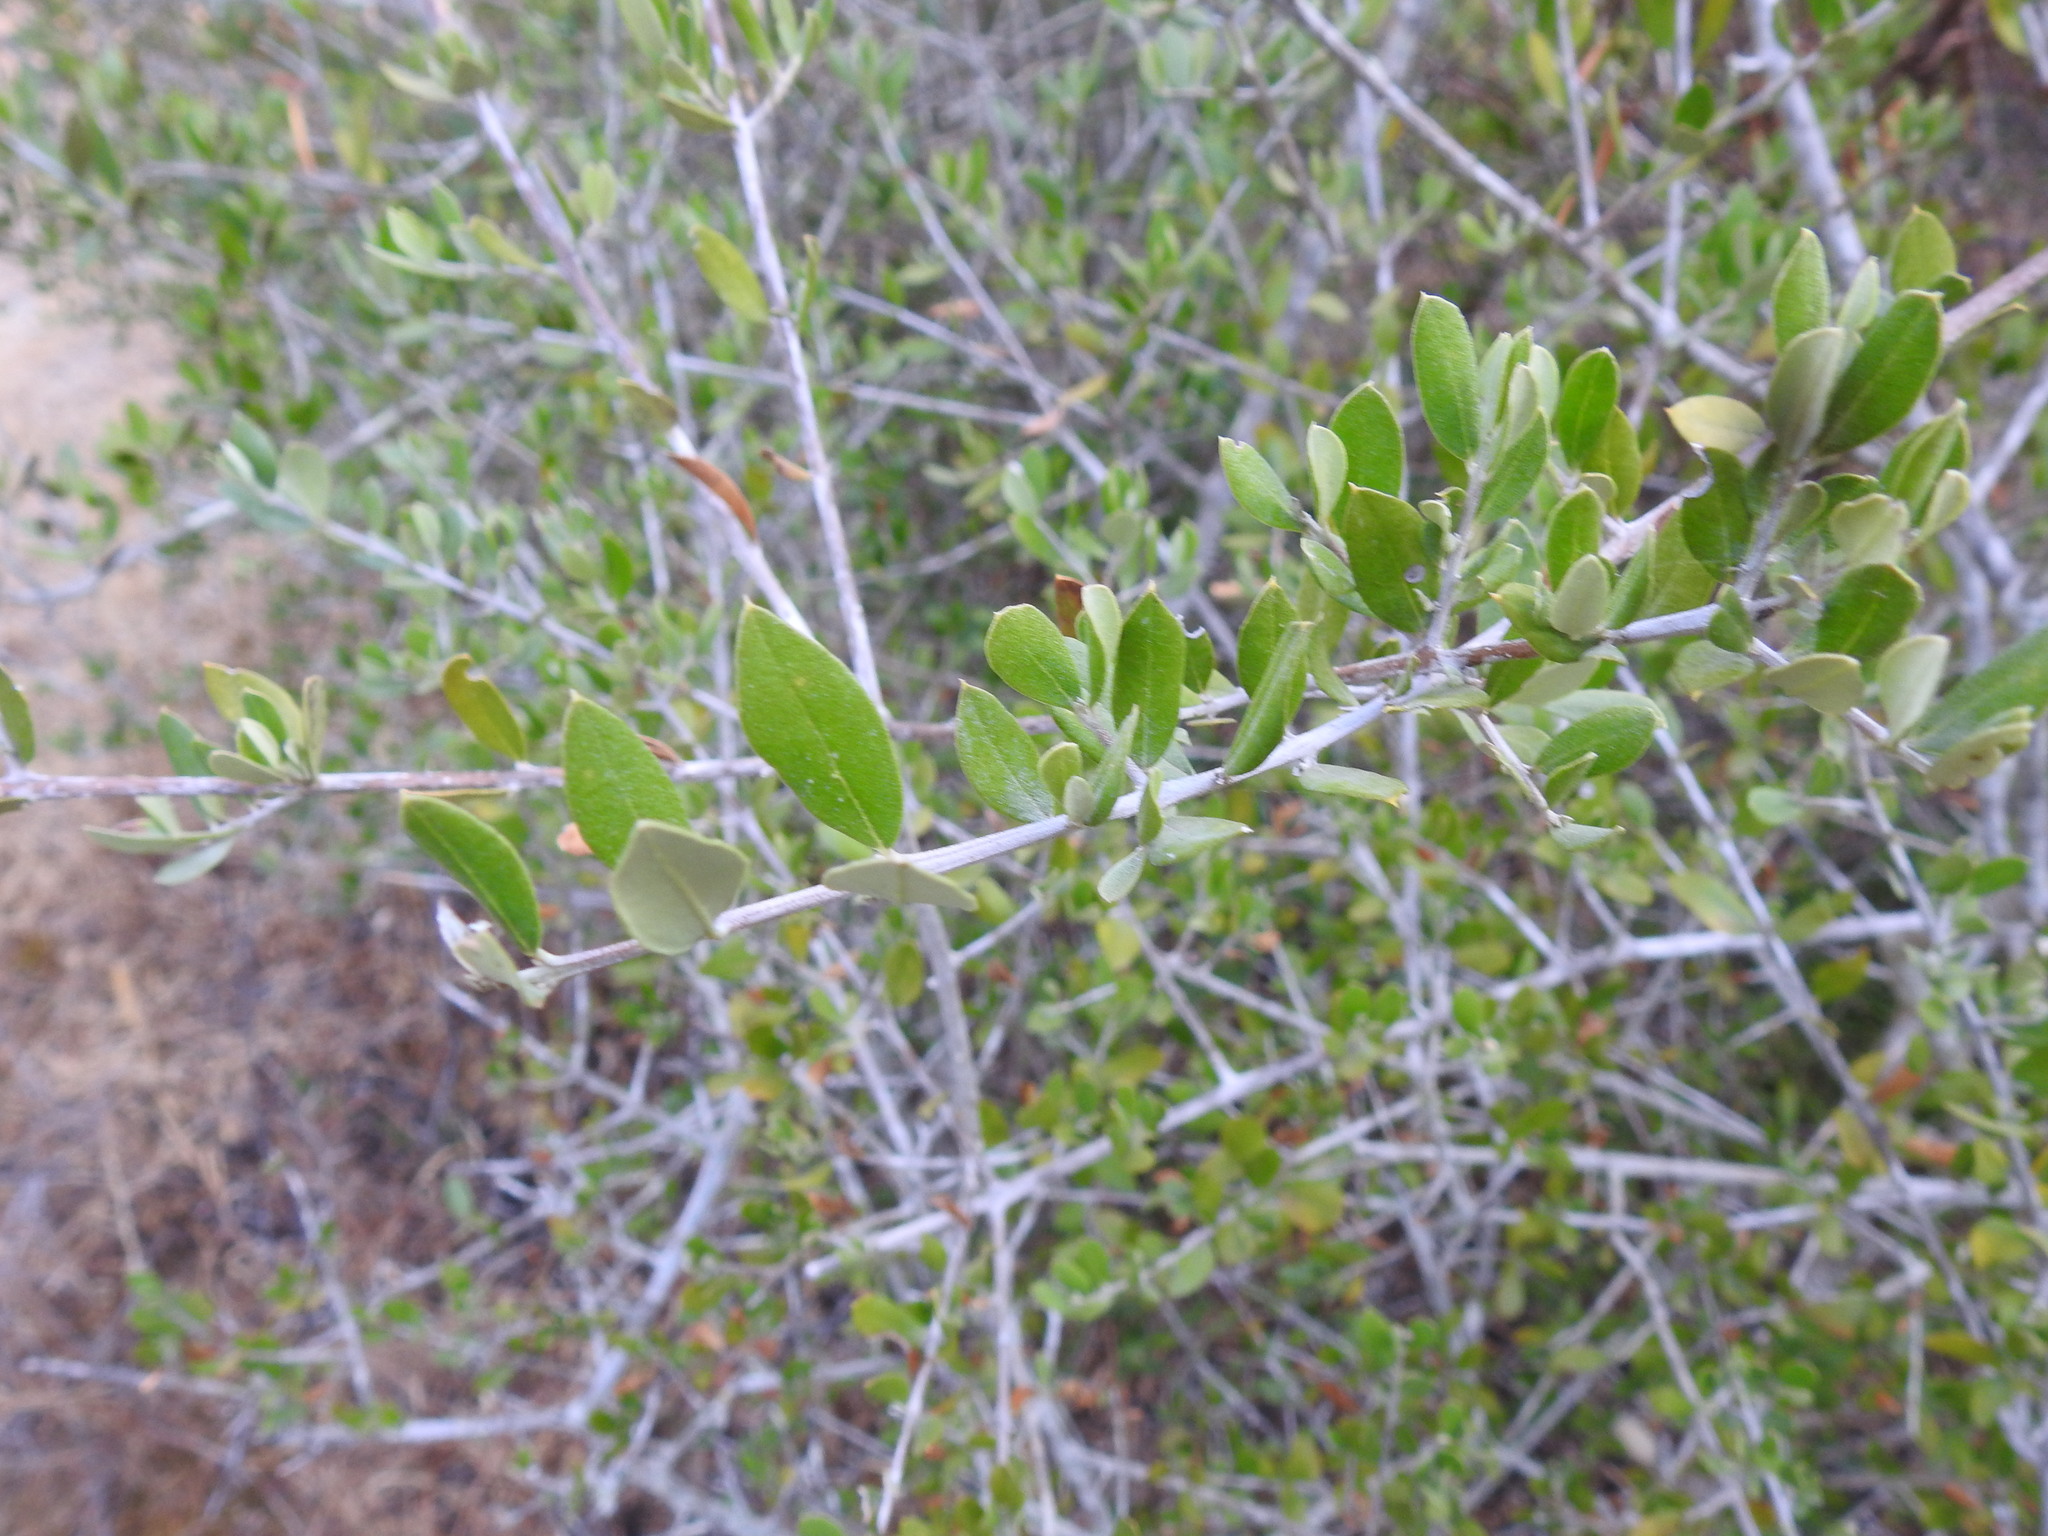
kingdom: Plantae
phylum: Tracheophyta
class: Magnoliopsida
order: Lamiales
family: Oleaceae
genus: Olea
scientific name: Olea europaea
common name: Olive
